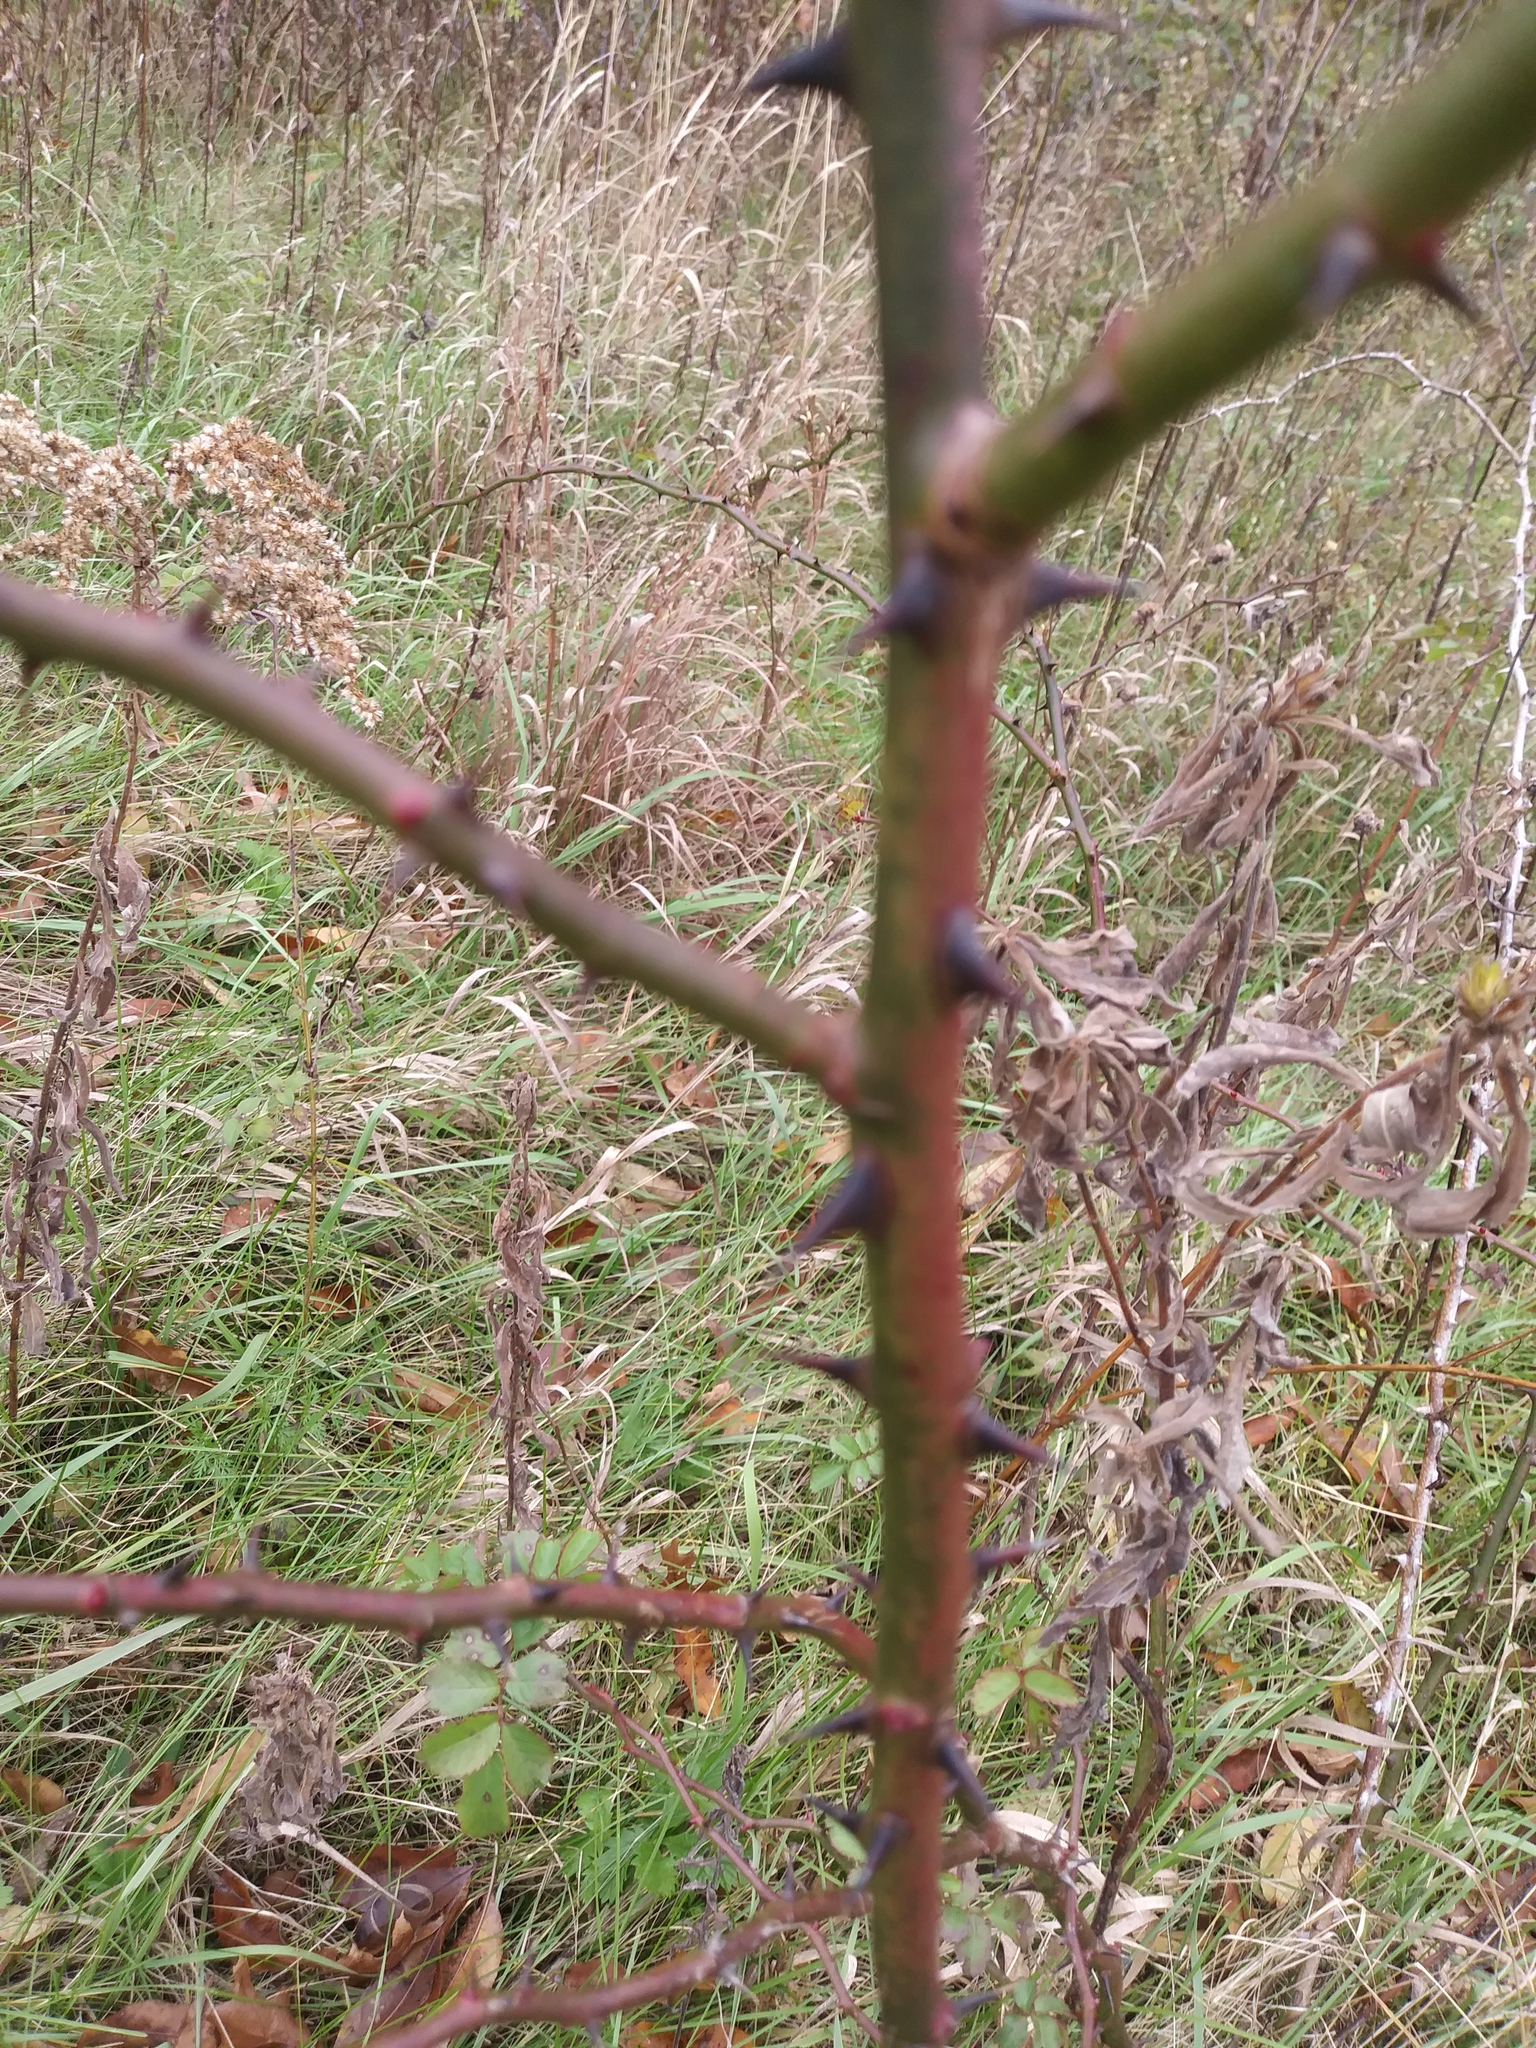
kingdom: Plantae
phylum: Tracheophyta
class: Magnoliopsida
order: Rosales
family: Rosaceae
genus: Rosa
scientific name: Rosa multiflora
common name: Multiflora rose
